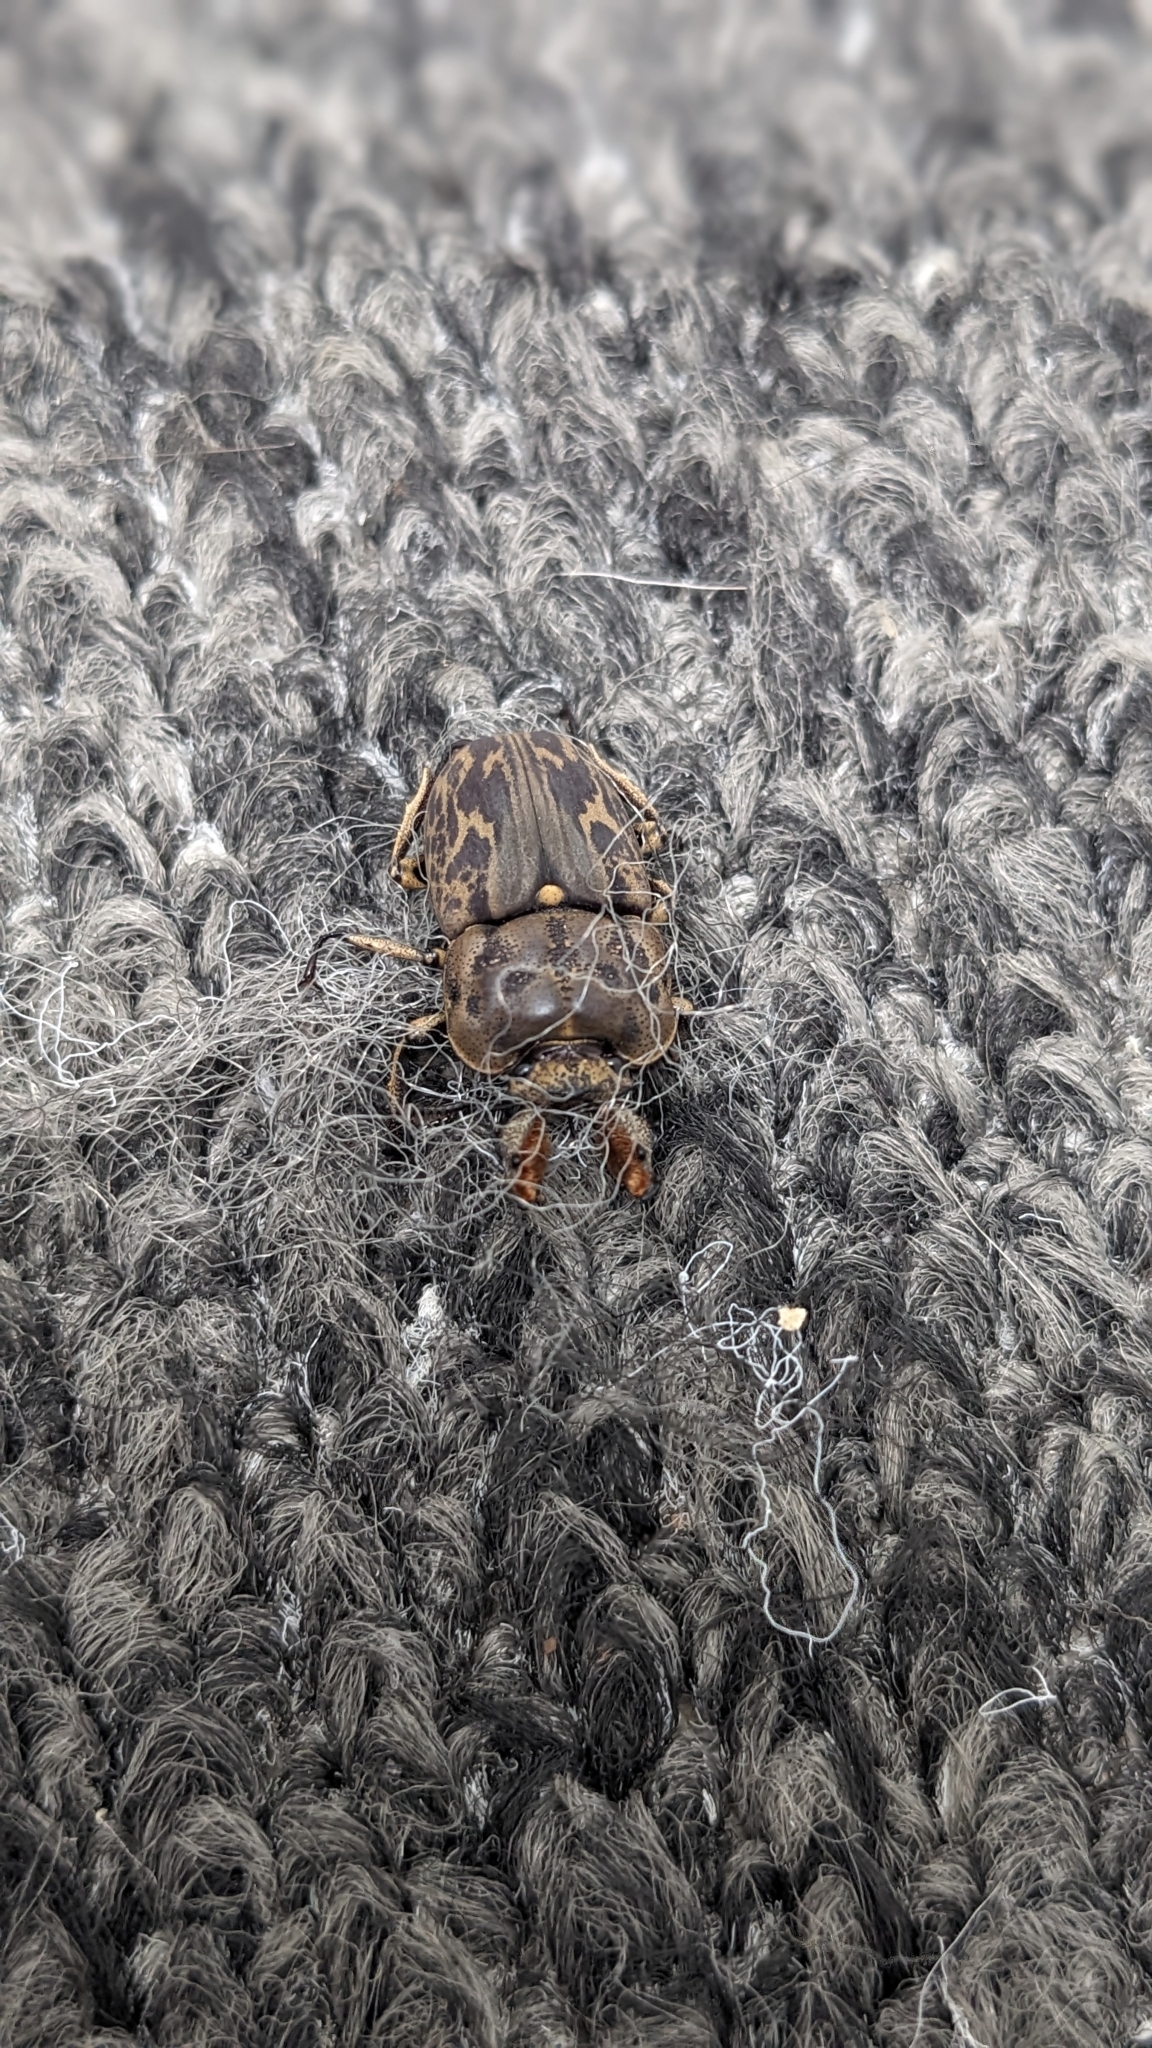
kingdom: Animalia
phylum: Arthropoda
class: Insecta
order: Coleoptera
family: Lucanidae
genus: Ryssonotus
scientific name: Ryssonotus nebulosus
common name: Brown stag beetle
